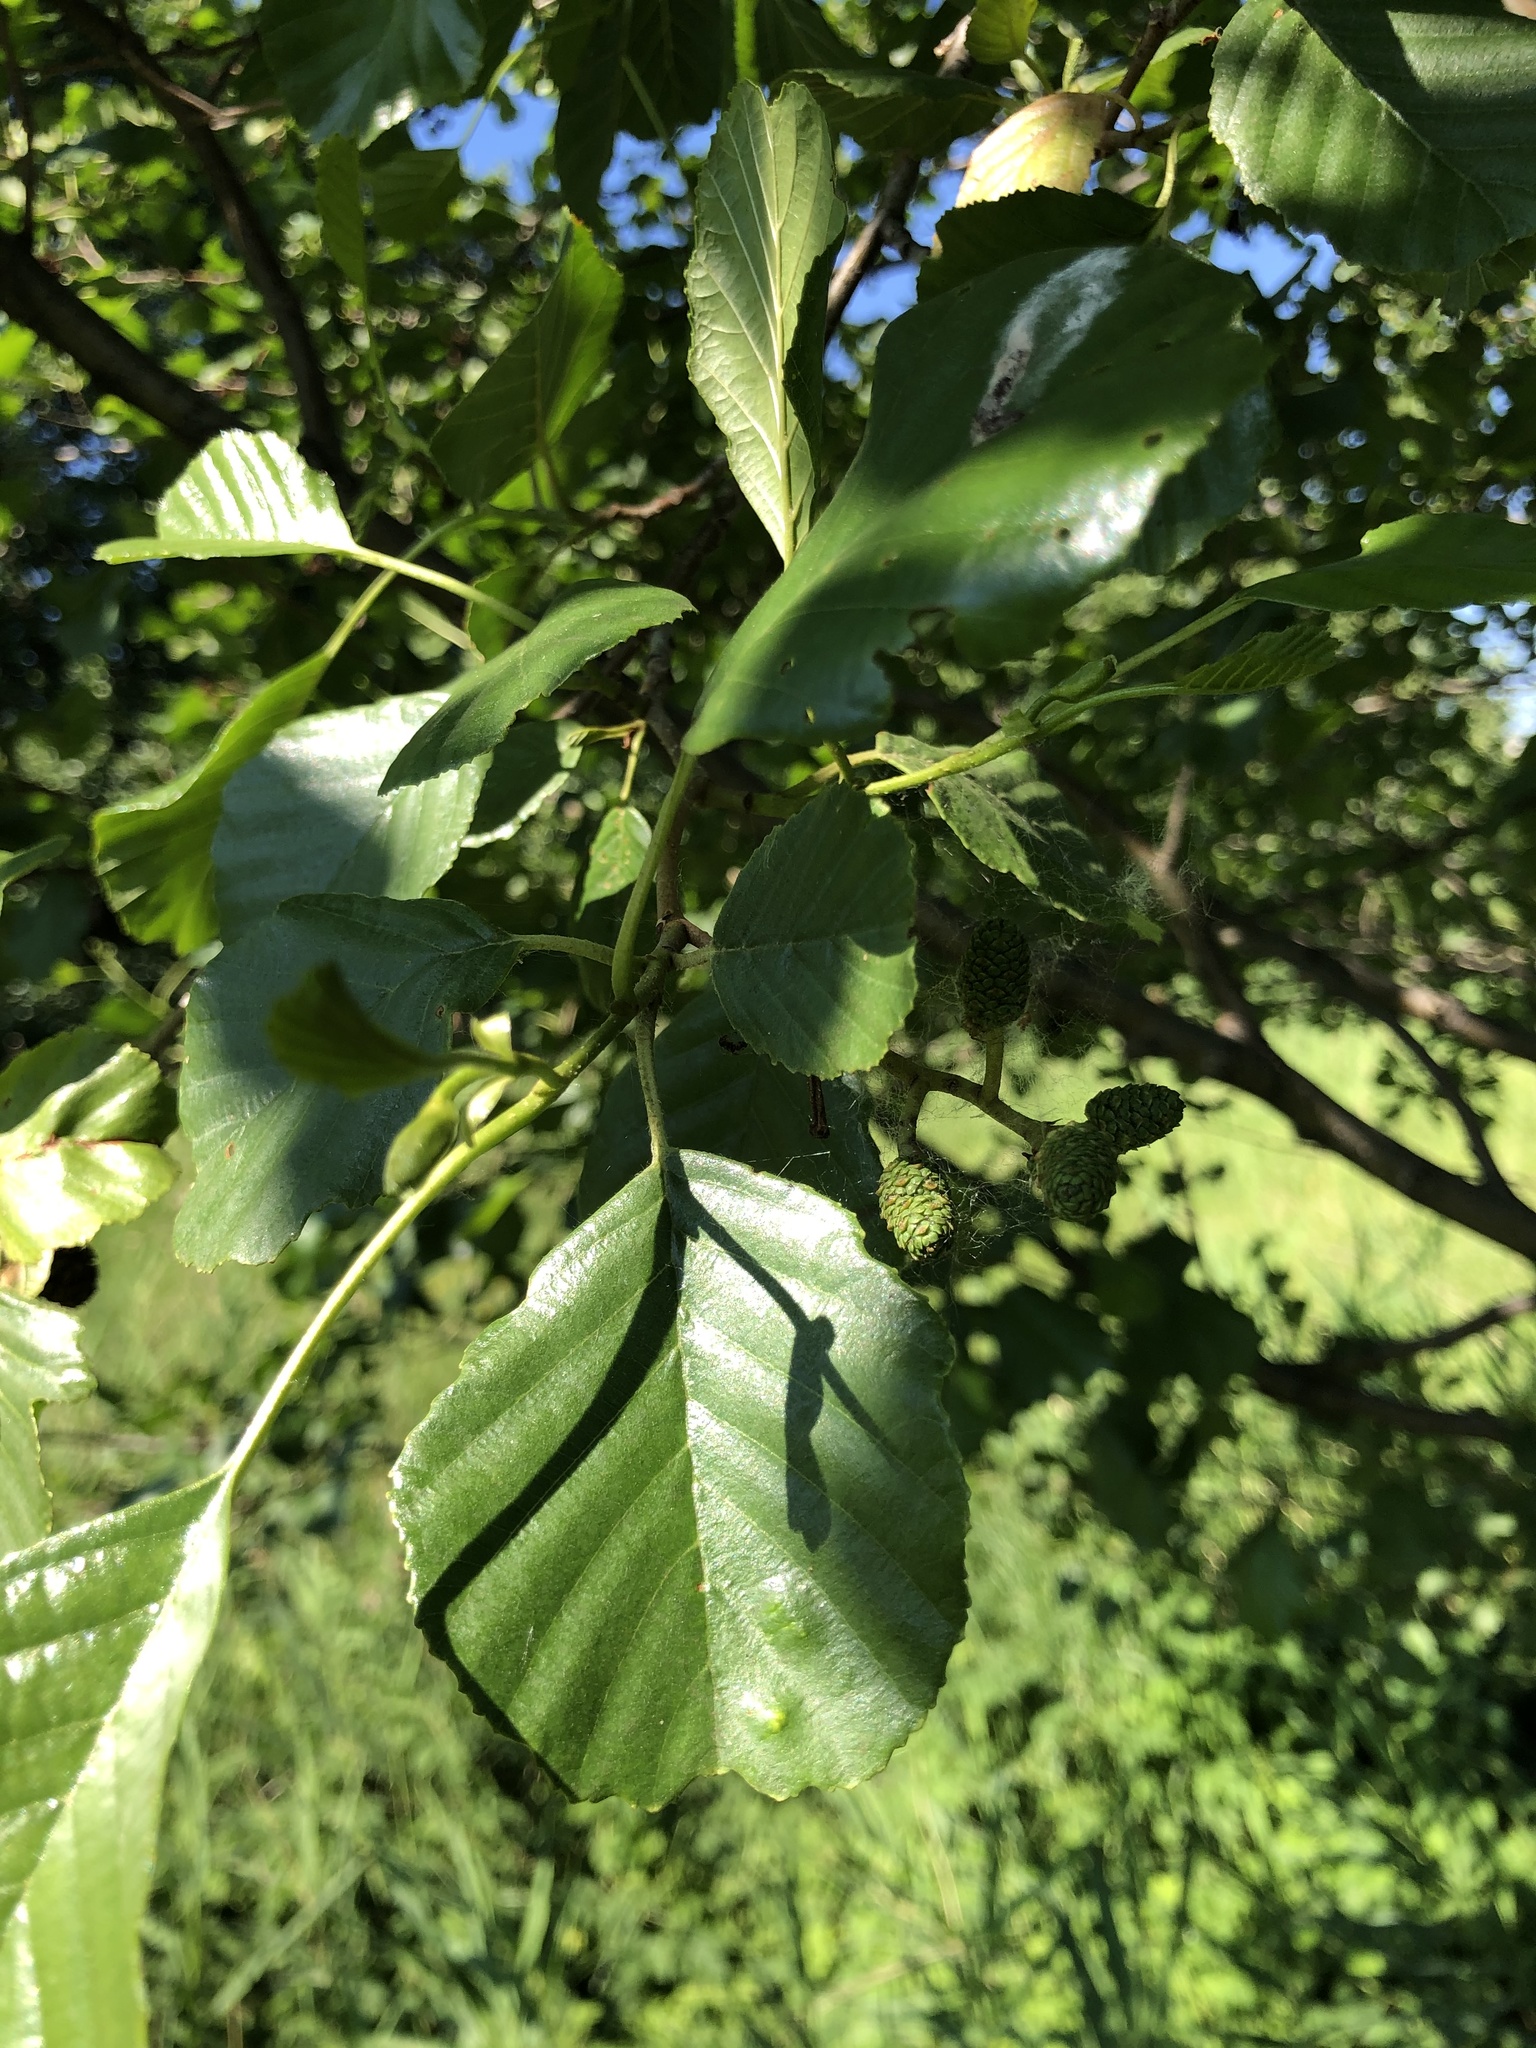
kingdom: Plantae
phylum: Tracheophyta
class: Magnoliopsida
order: Fagales
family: Betulaceae
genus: Alnus
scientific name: Alnus glutinosa
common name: Black alder
